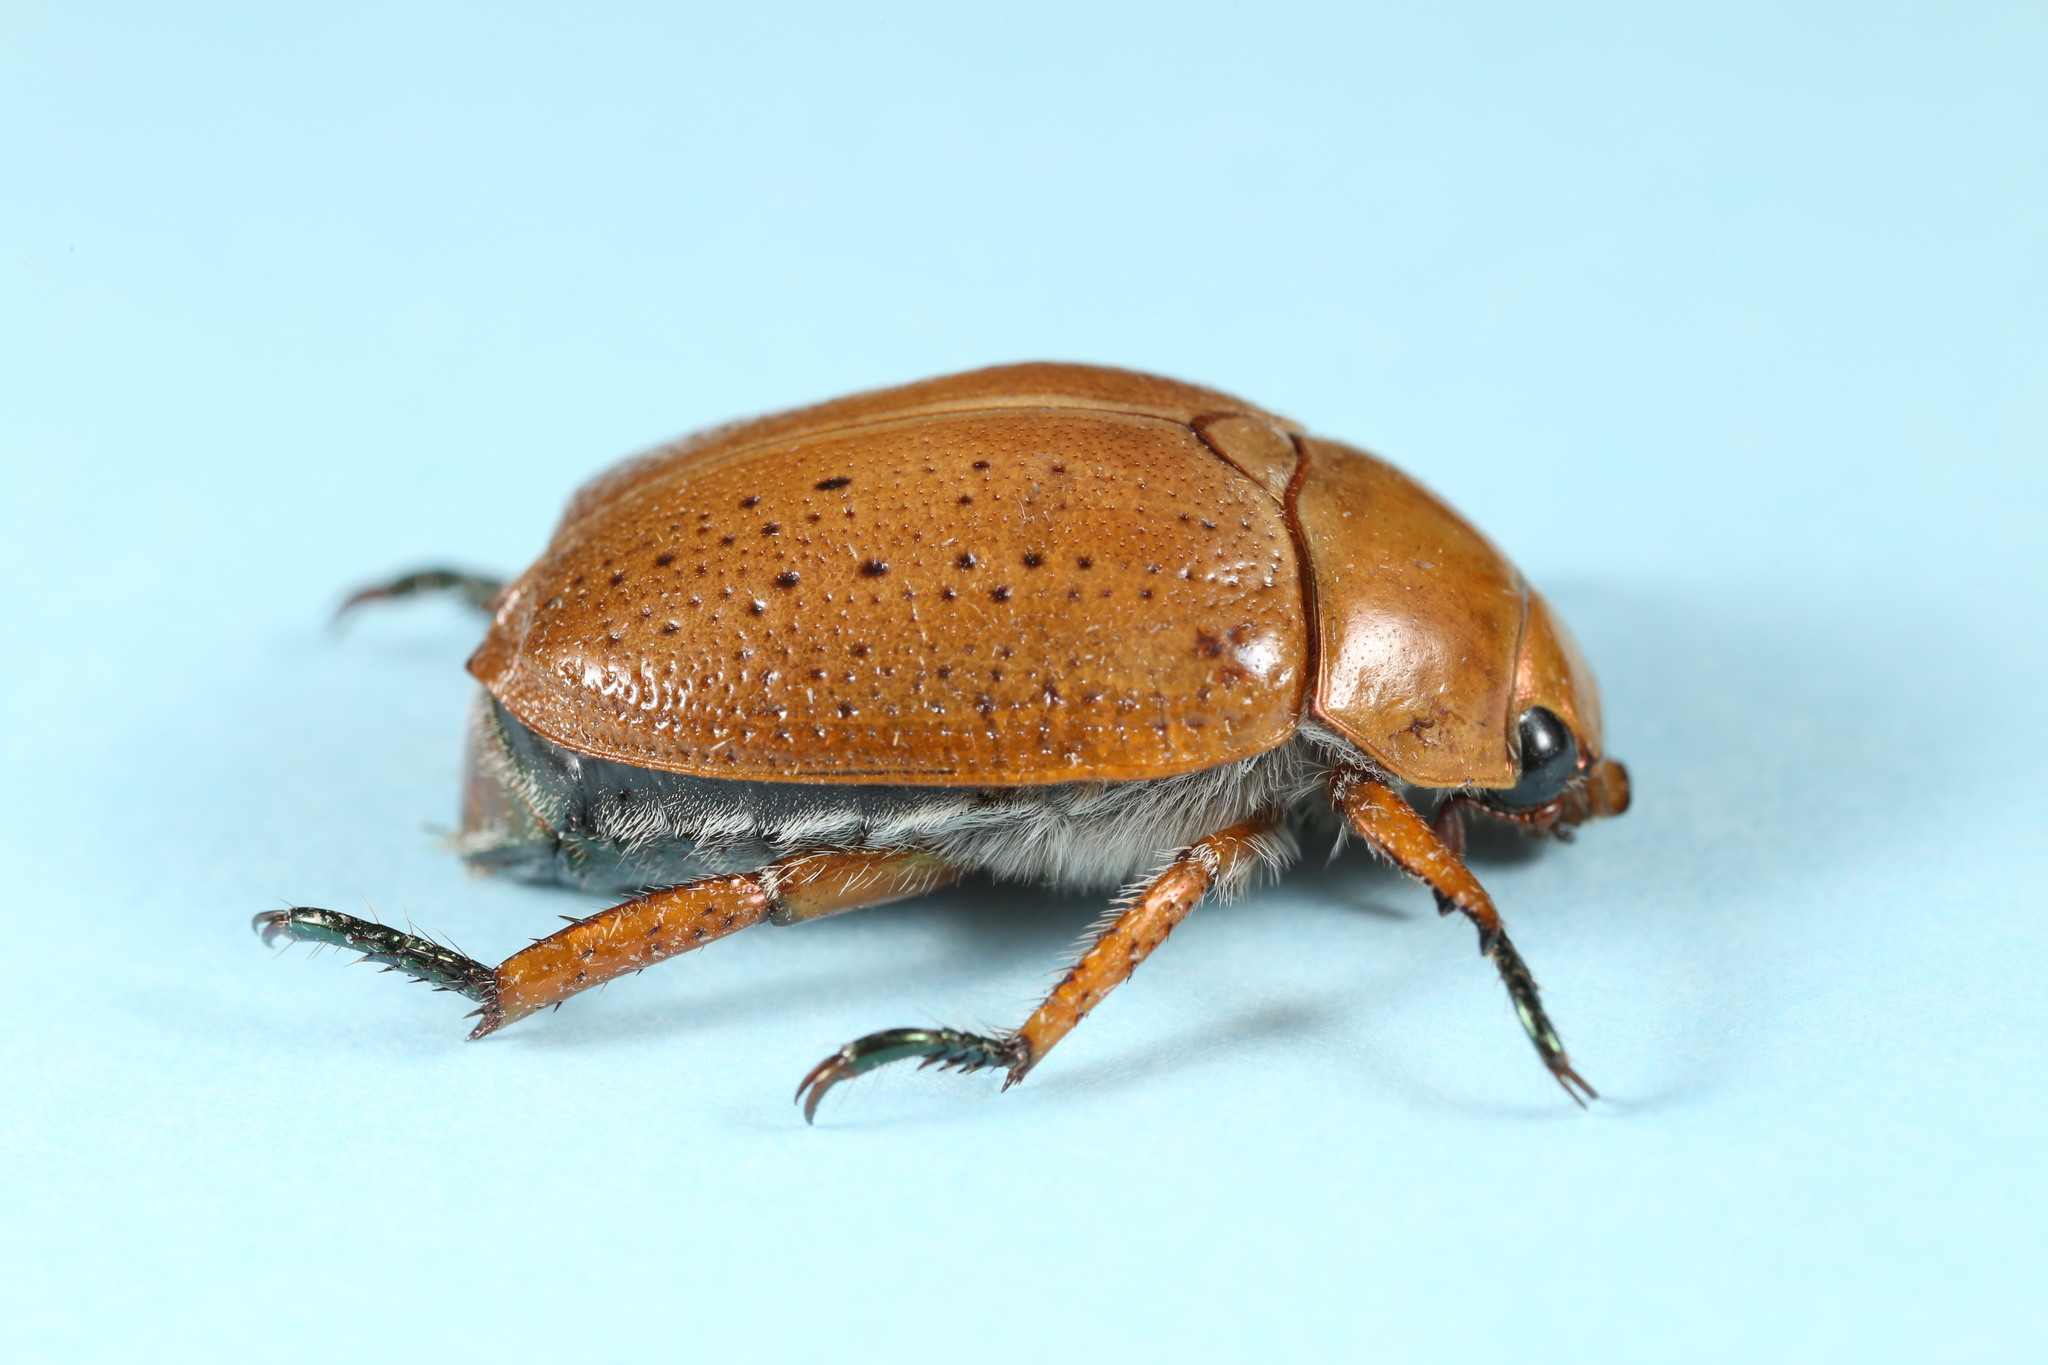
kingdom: Animalia
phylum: Arthropoda
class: Insecta
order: Coleoptera
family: Scarabaeidae
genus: Anoplognathus
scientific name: Anoplognathus porosus
